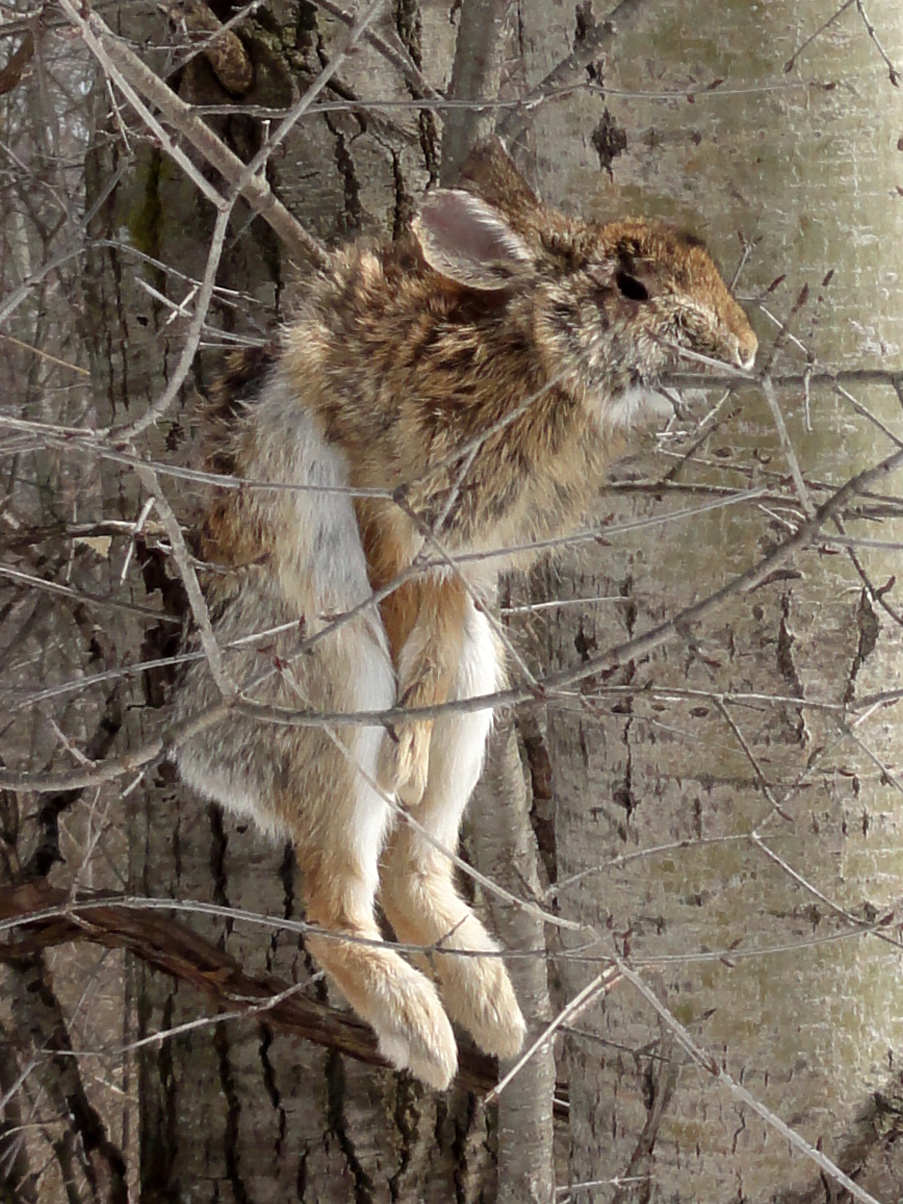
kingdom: Animalia
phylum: Chordata
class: Mammalia
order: Lagomorpha
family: Leporidae
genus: Sylvilagus
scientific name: Sylvilagus floridanus
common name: Eastern cottontail
